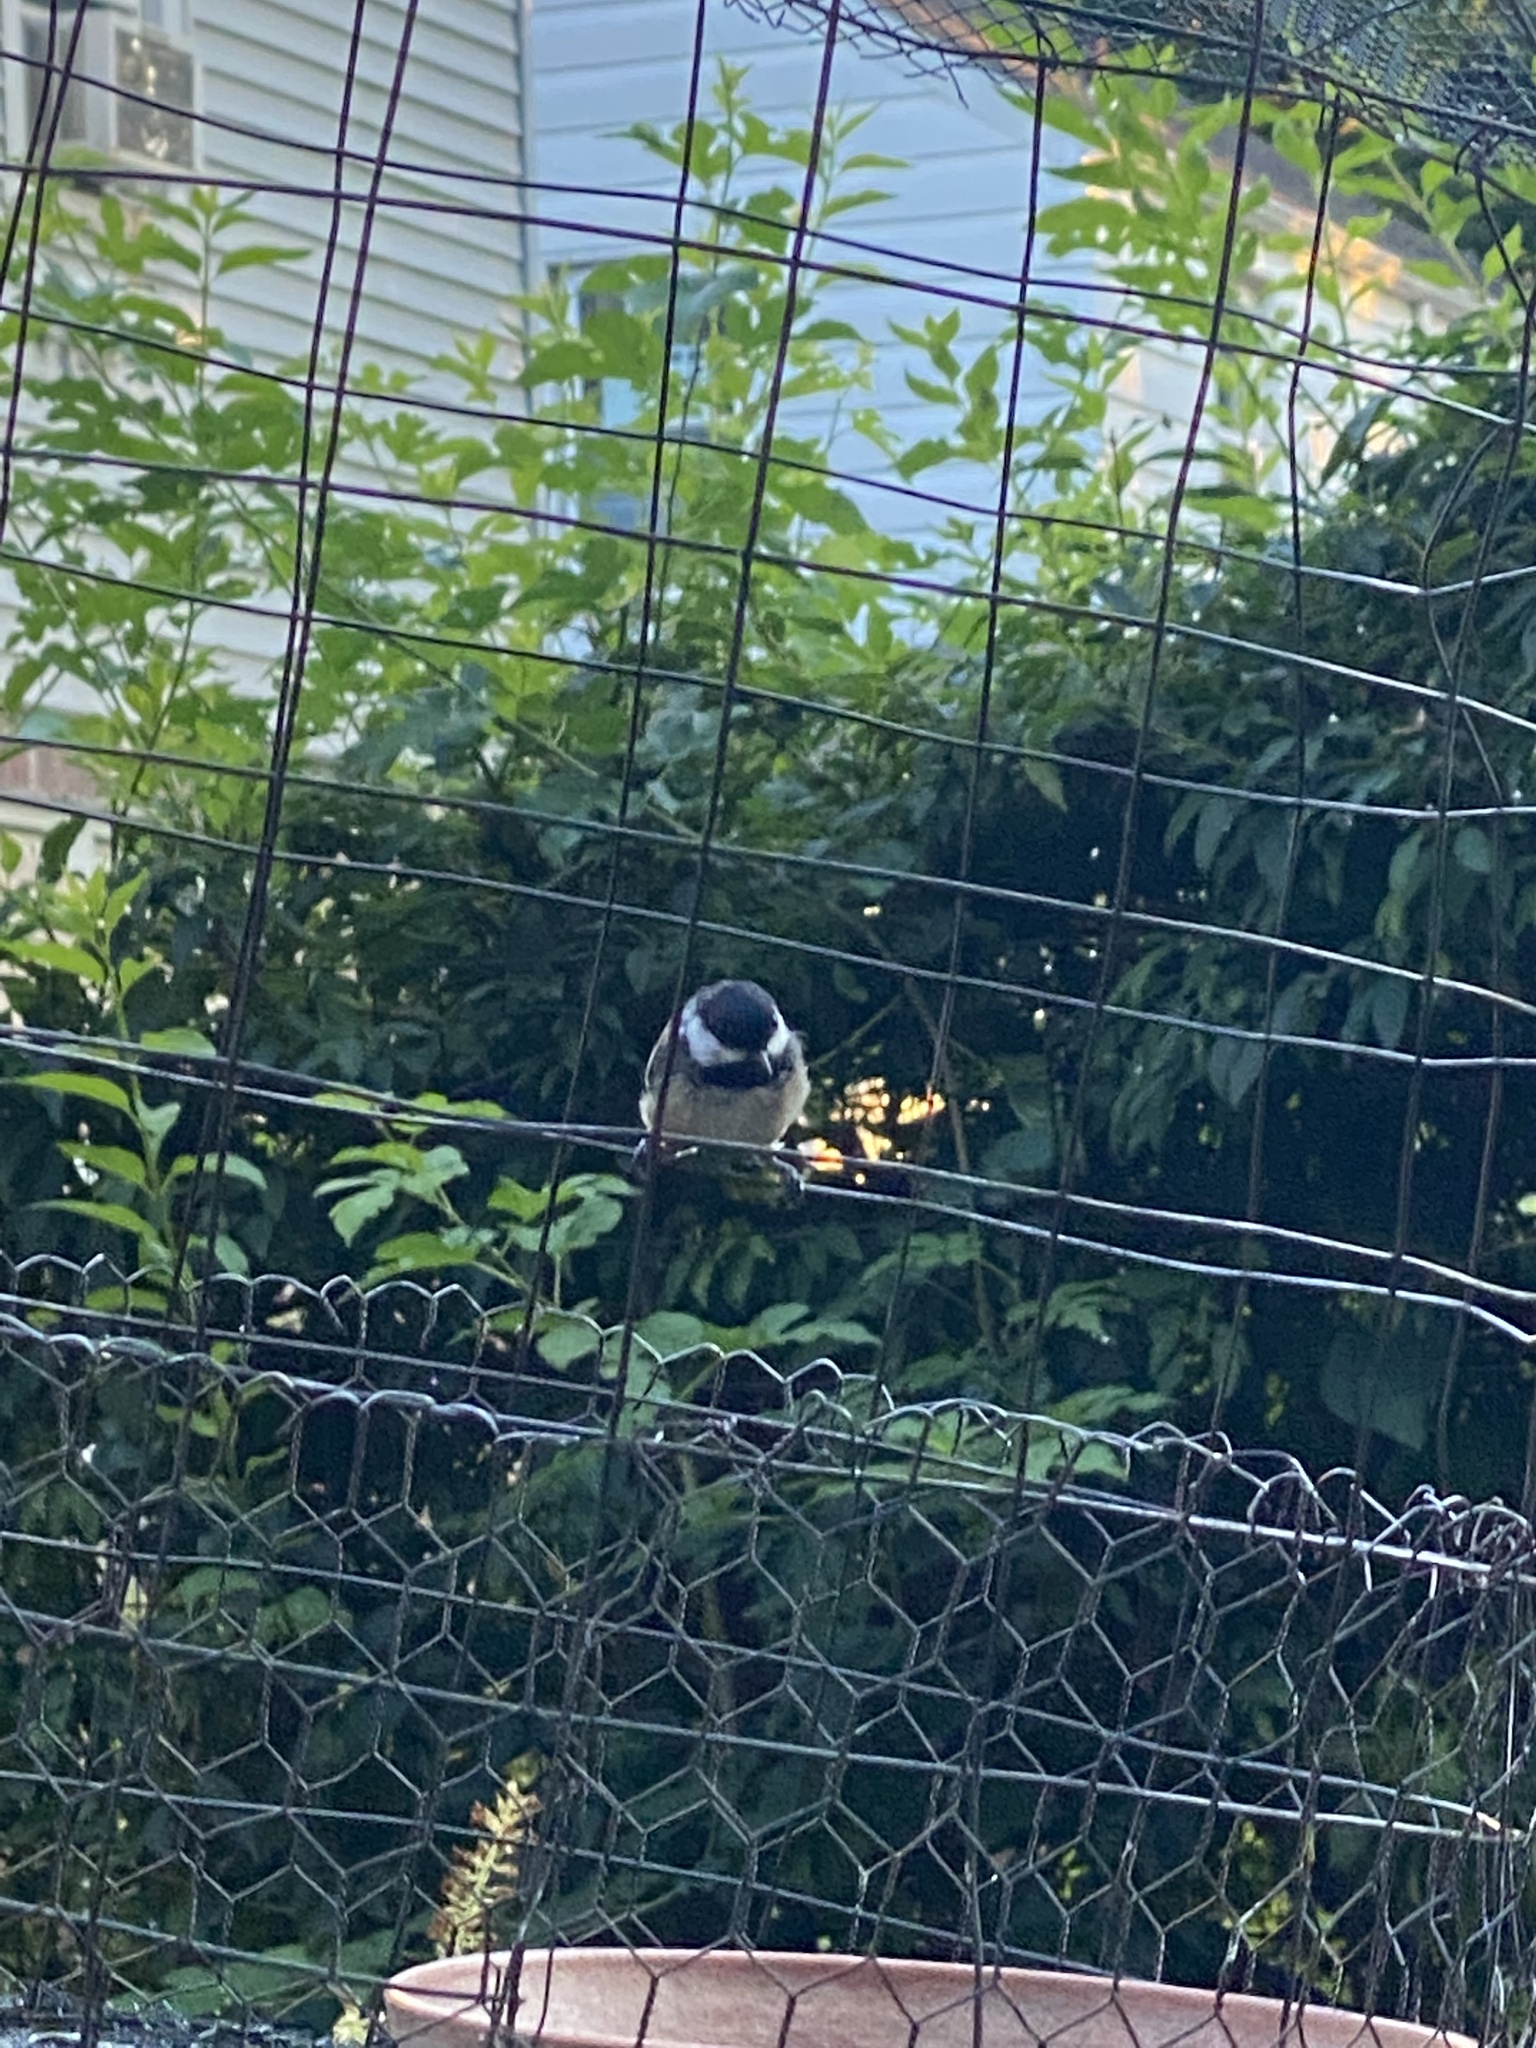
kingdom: Animalia
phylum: Chordata
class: Aves
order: Passeriformes
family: Paridae
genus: Poecile
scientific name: Poecile atricapillus
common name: Black-capped chickadee
